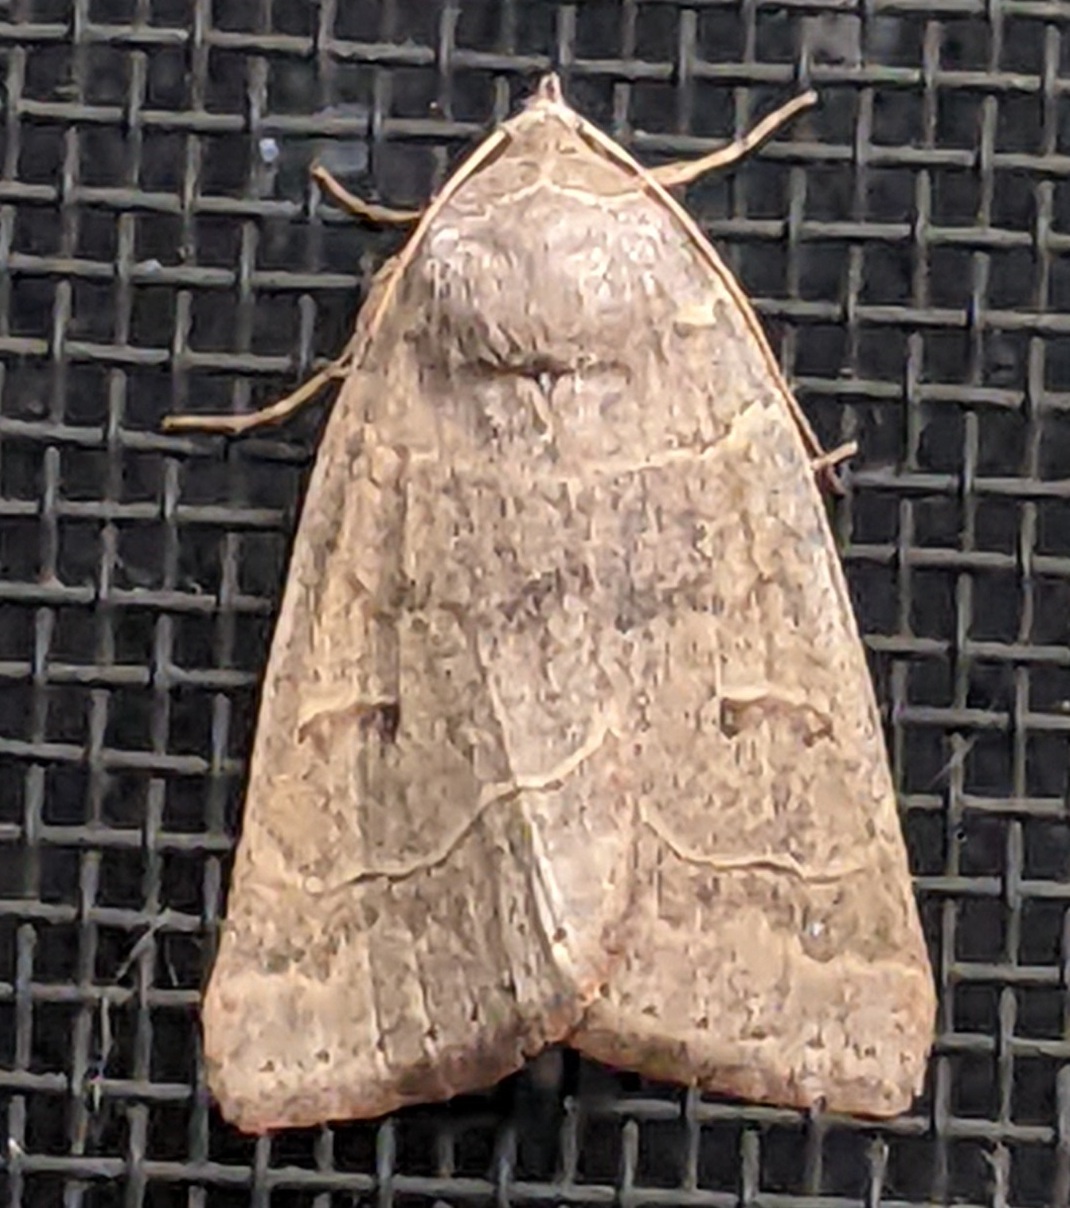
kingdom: Animalia
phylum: Arthropoda
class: Insecta
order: Lepidoptera
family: Erebidae
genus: Phoberia
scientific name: Phoberia atomaris
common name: Common oak moth
